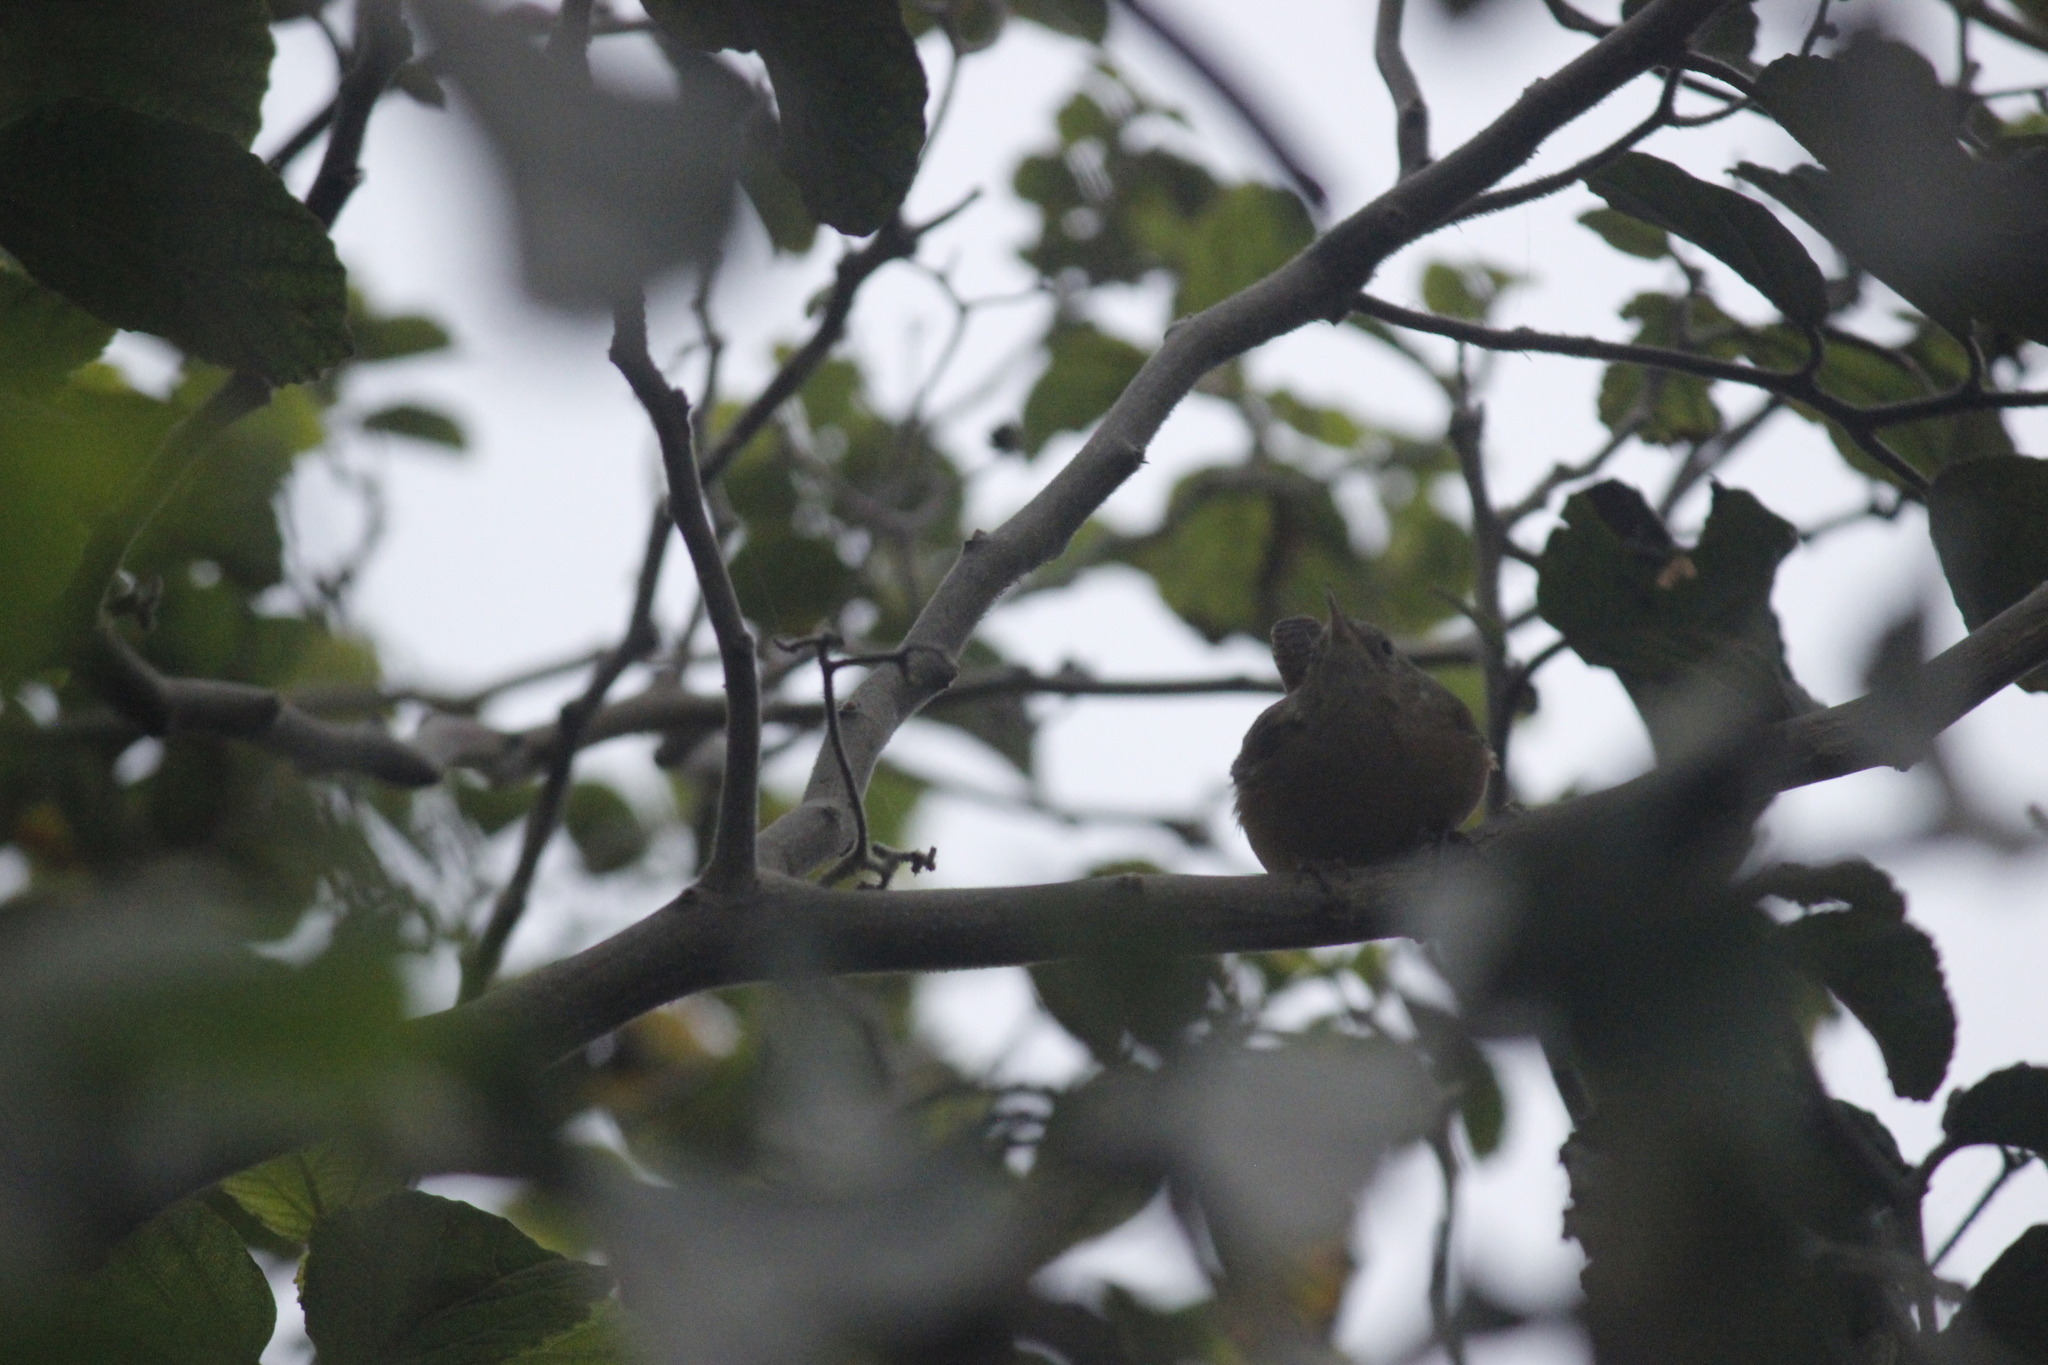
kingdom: Animalia
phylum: Chordata
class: Aves
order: Passeriformes
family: Troglodytidae
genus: Troglodytes
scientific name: Troglodytes aedon
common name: House wren
